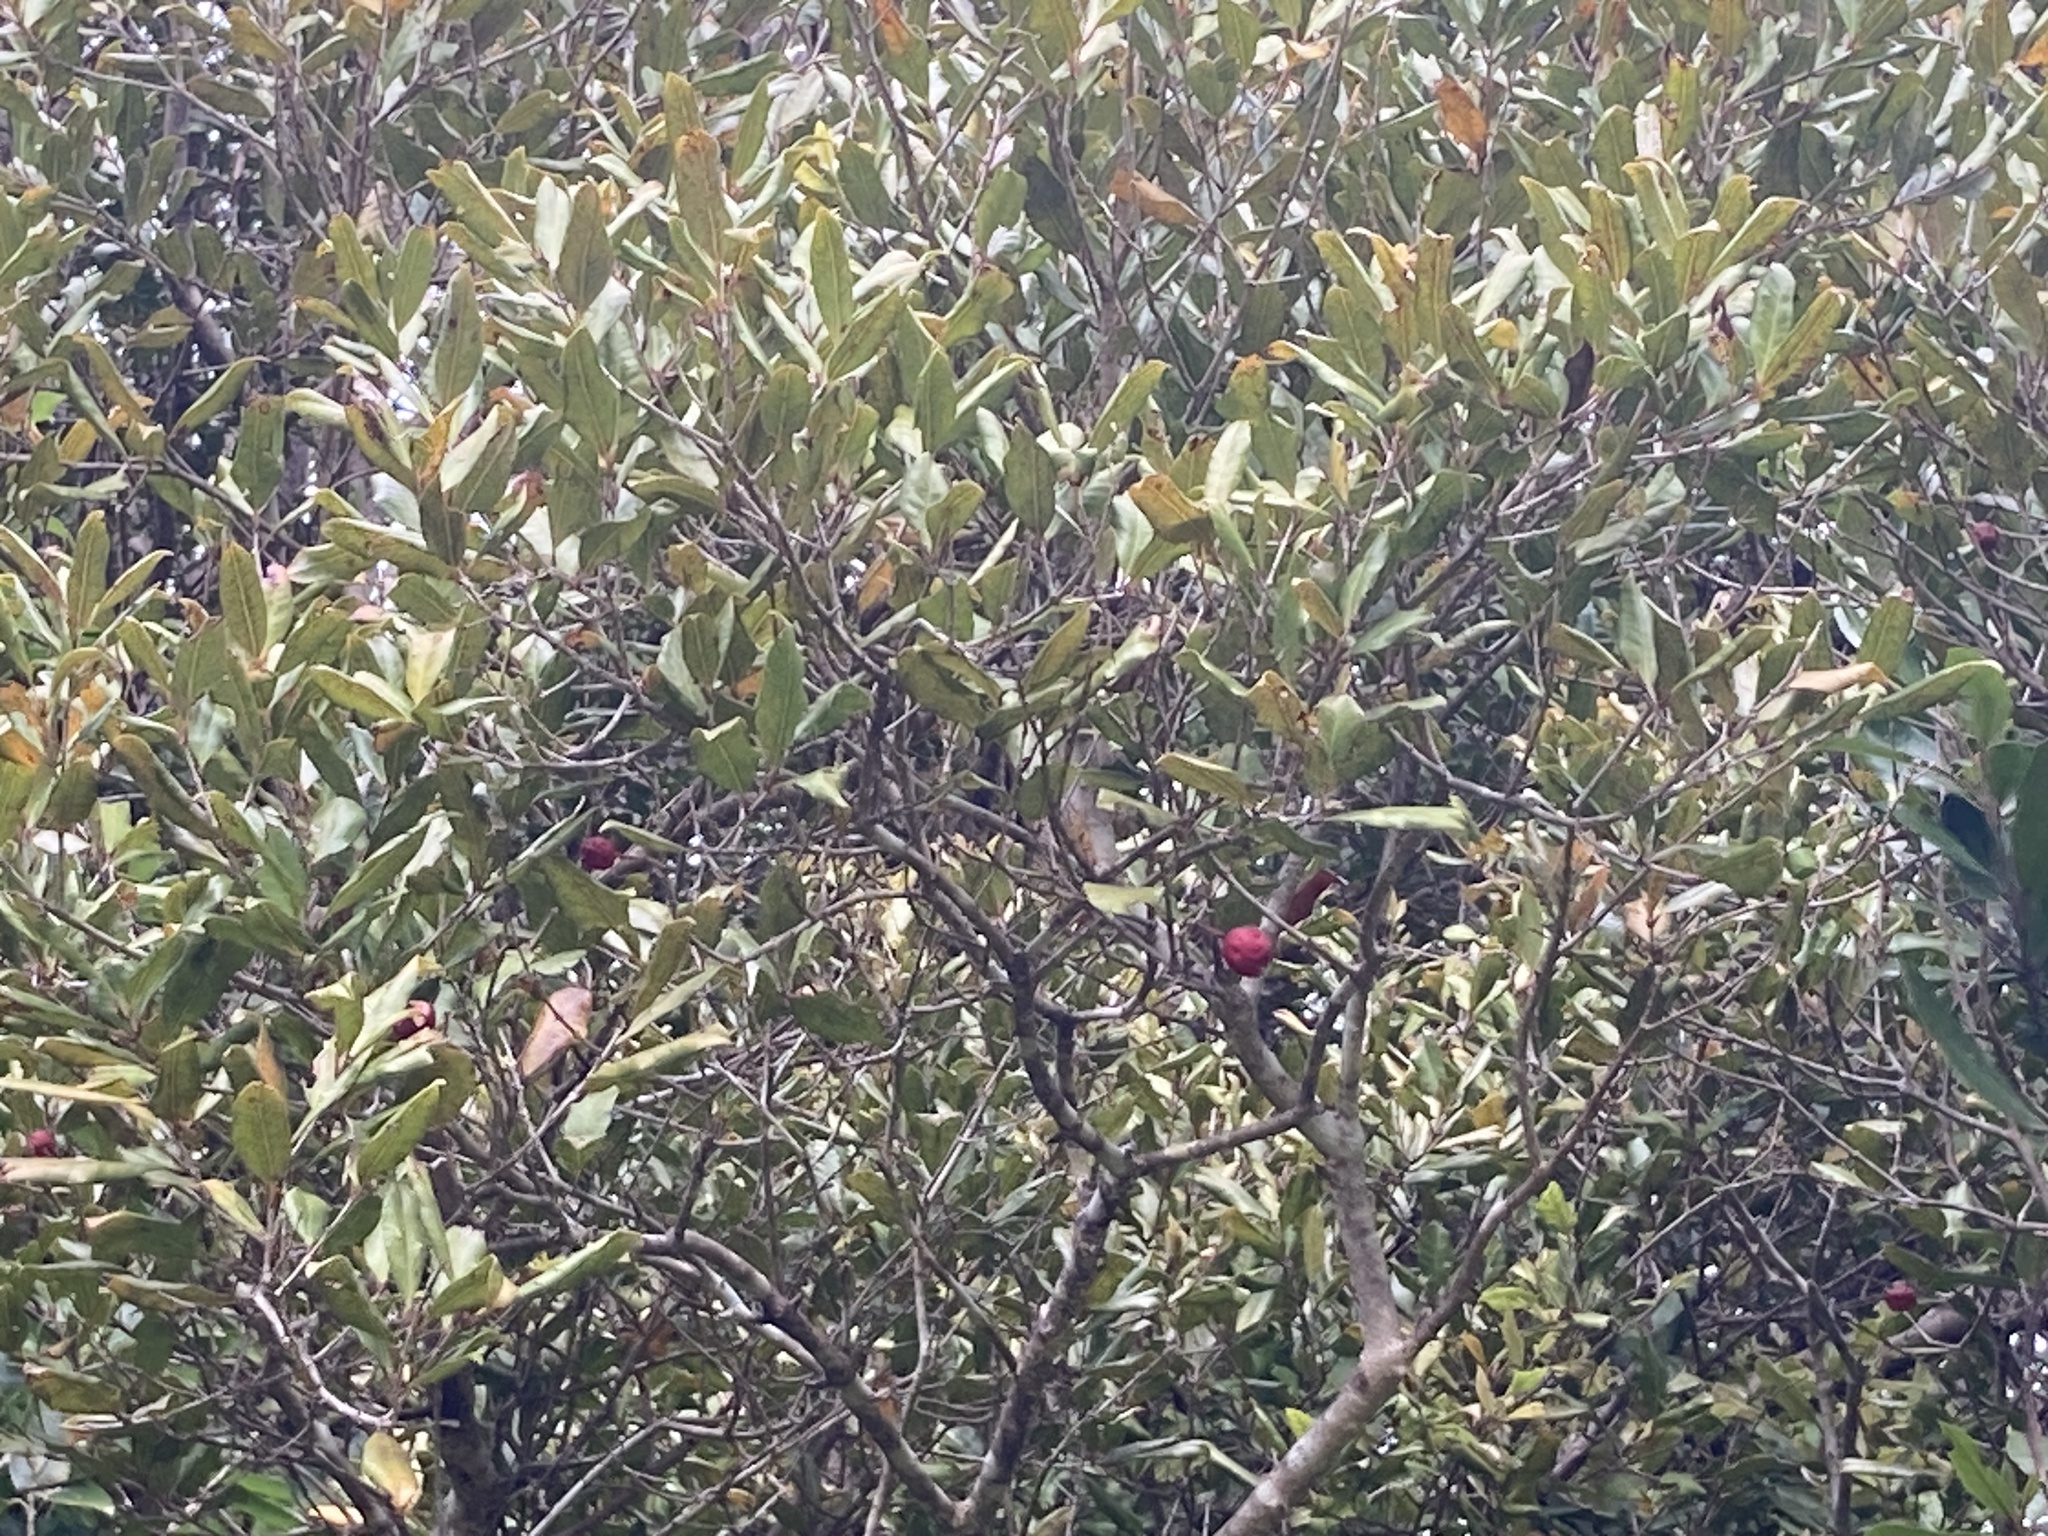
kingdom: Plantae
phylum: Tracheophyta
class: Magnoliopsida
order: Myrtales
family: Myrtaceae
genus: Syzygium
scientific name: Syzygium maire
